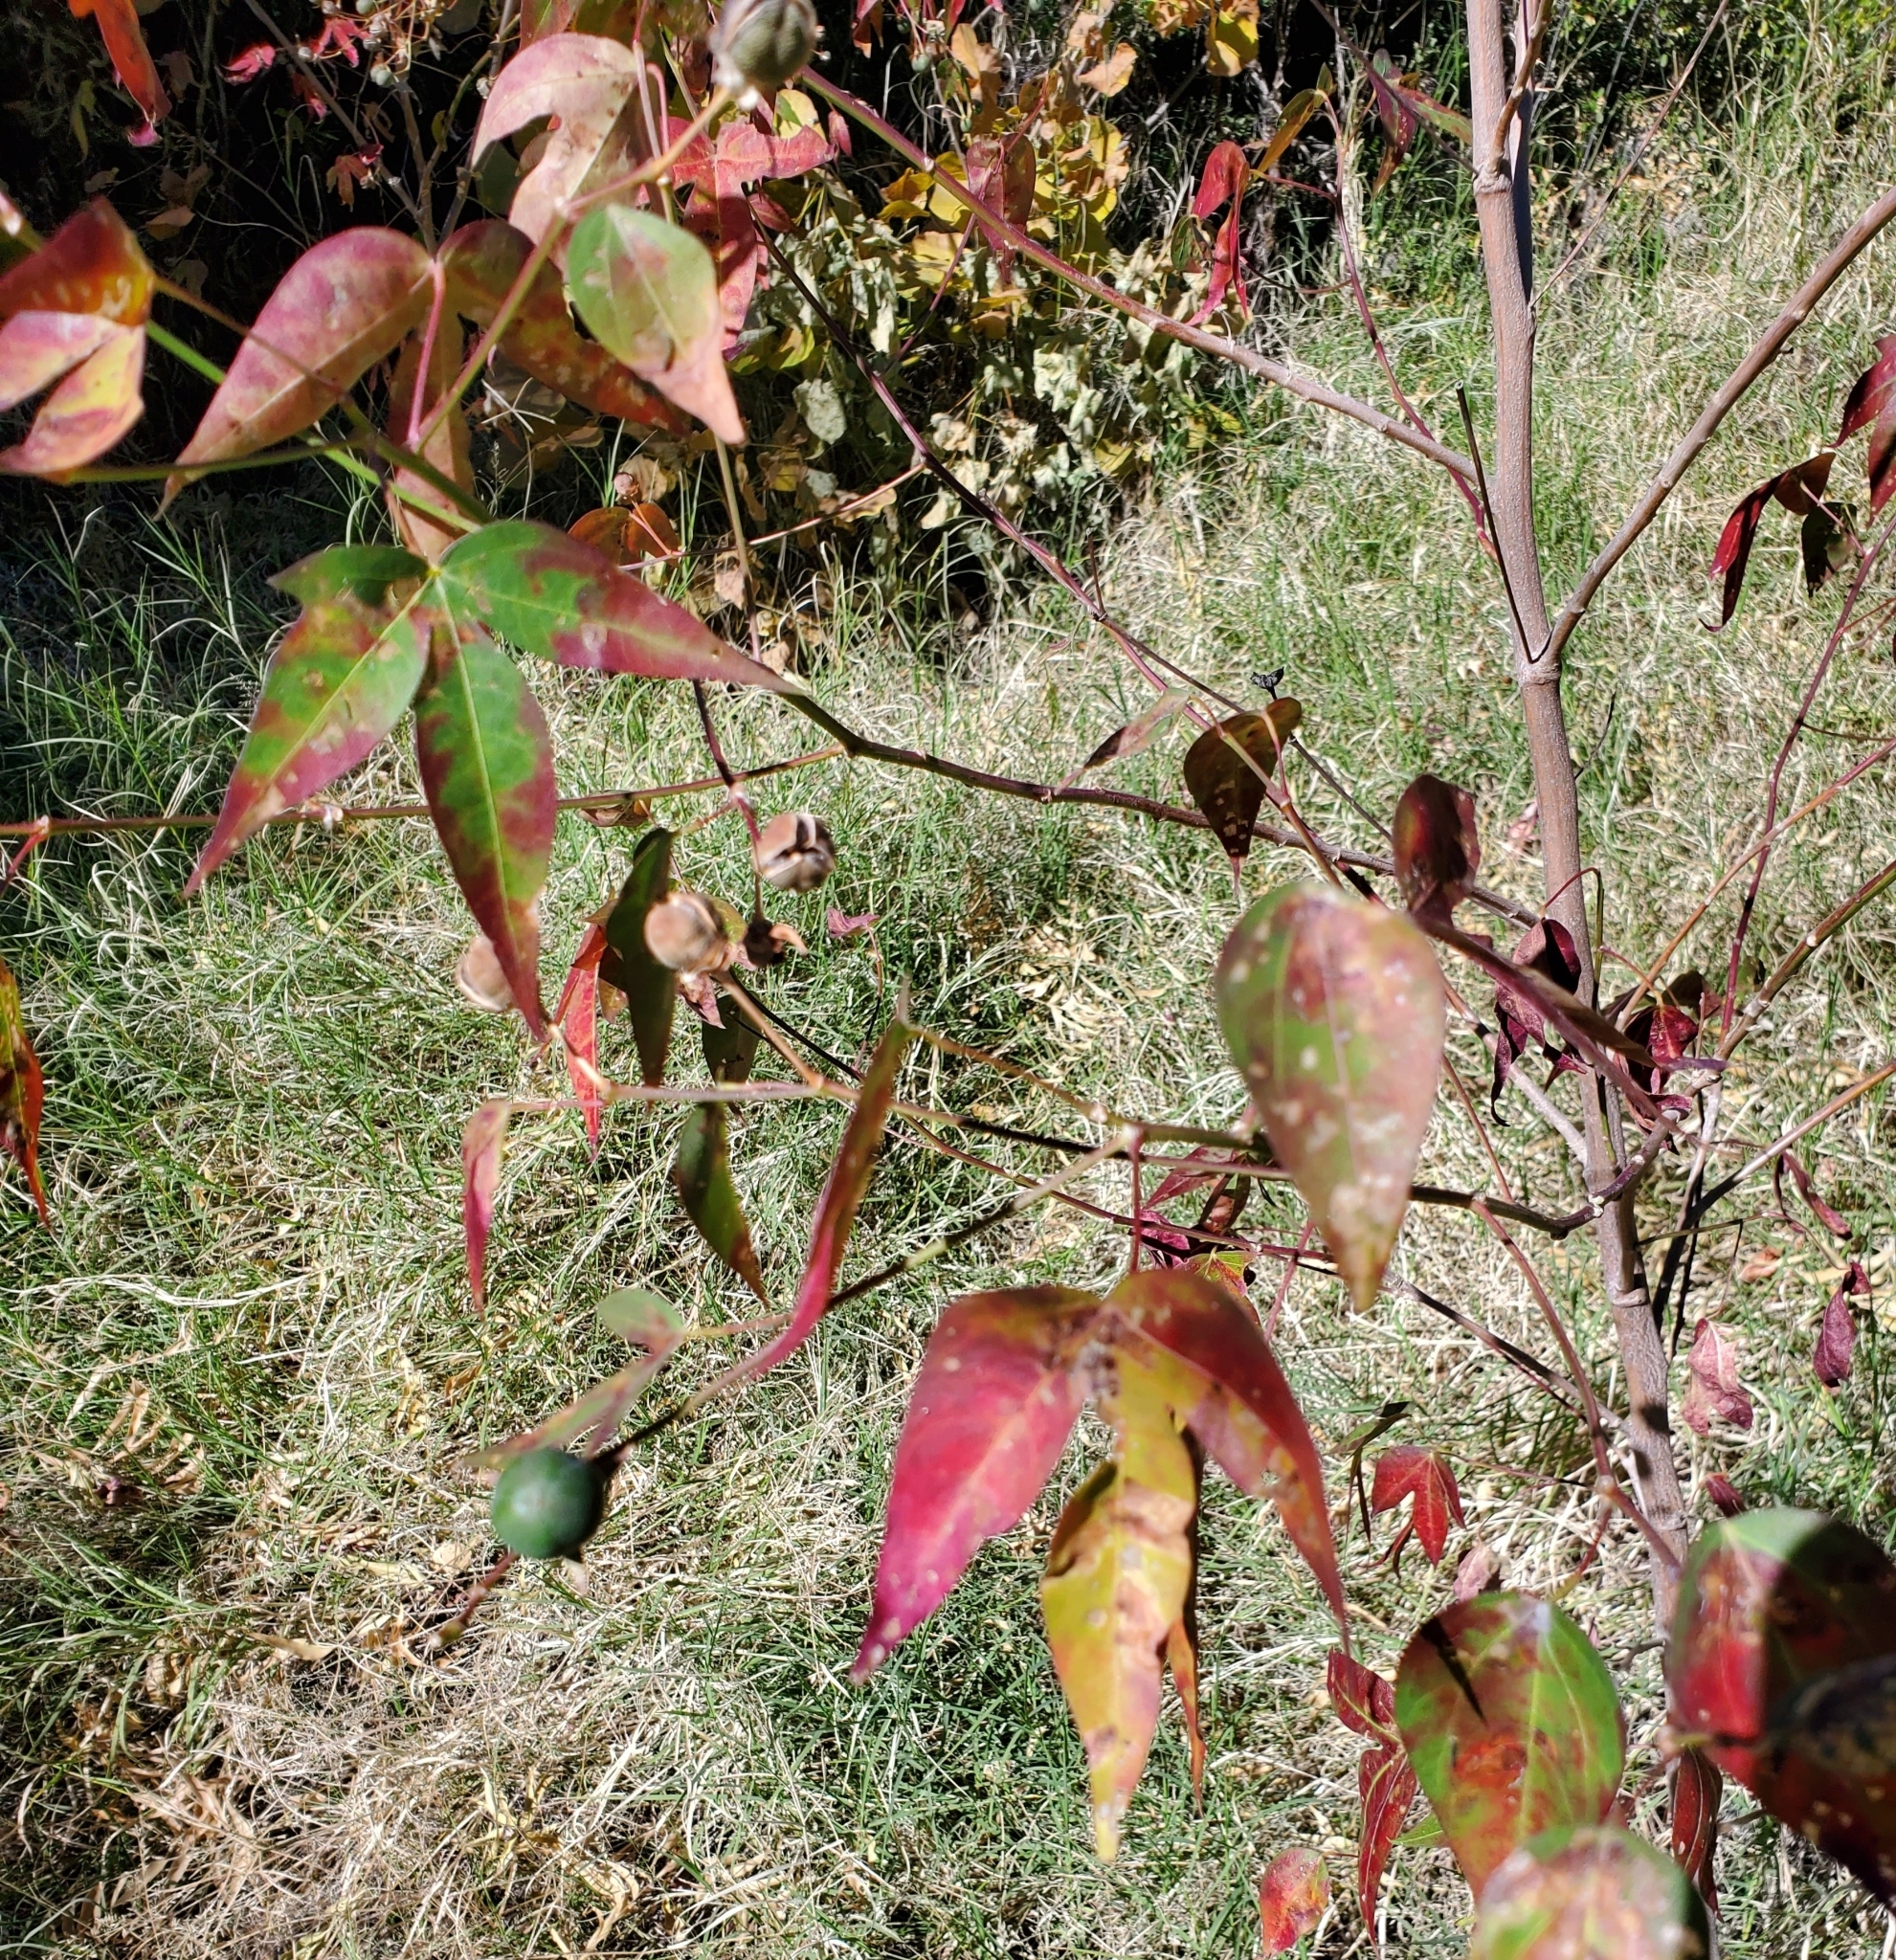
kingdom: Plantae
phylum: Tracheophyta
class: Magnoliopsida
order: Malvales
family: Malvaceae
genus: Gossypium
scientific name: Gossypium thurberi
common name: Desert cotton
